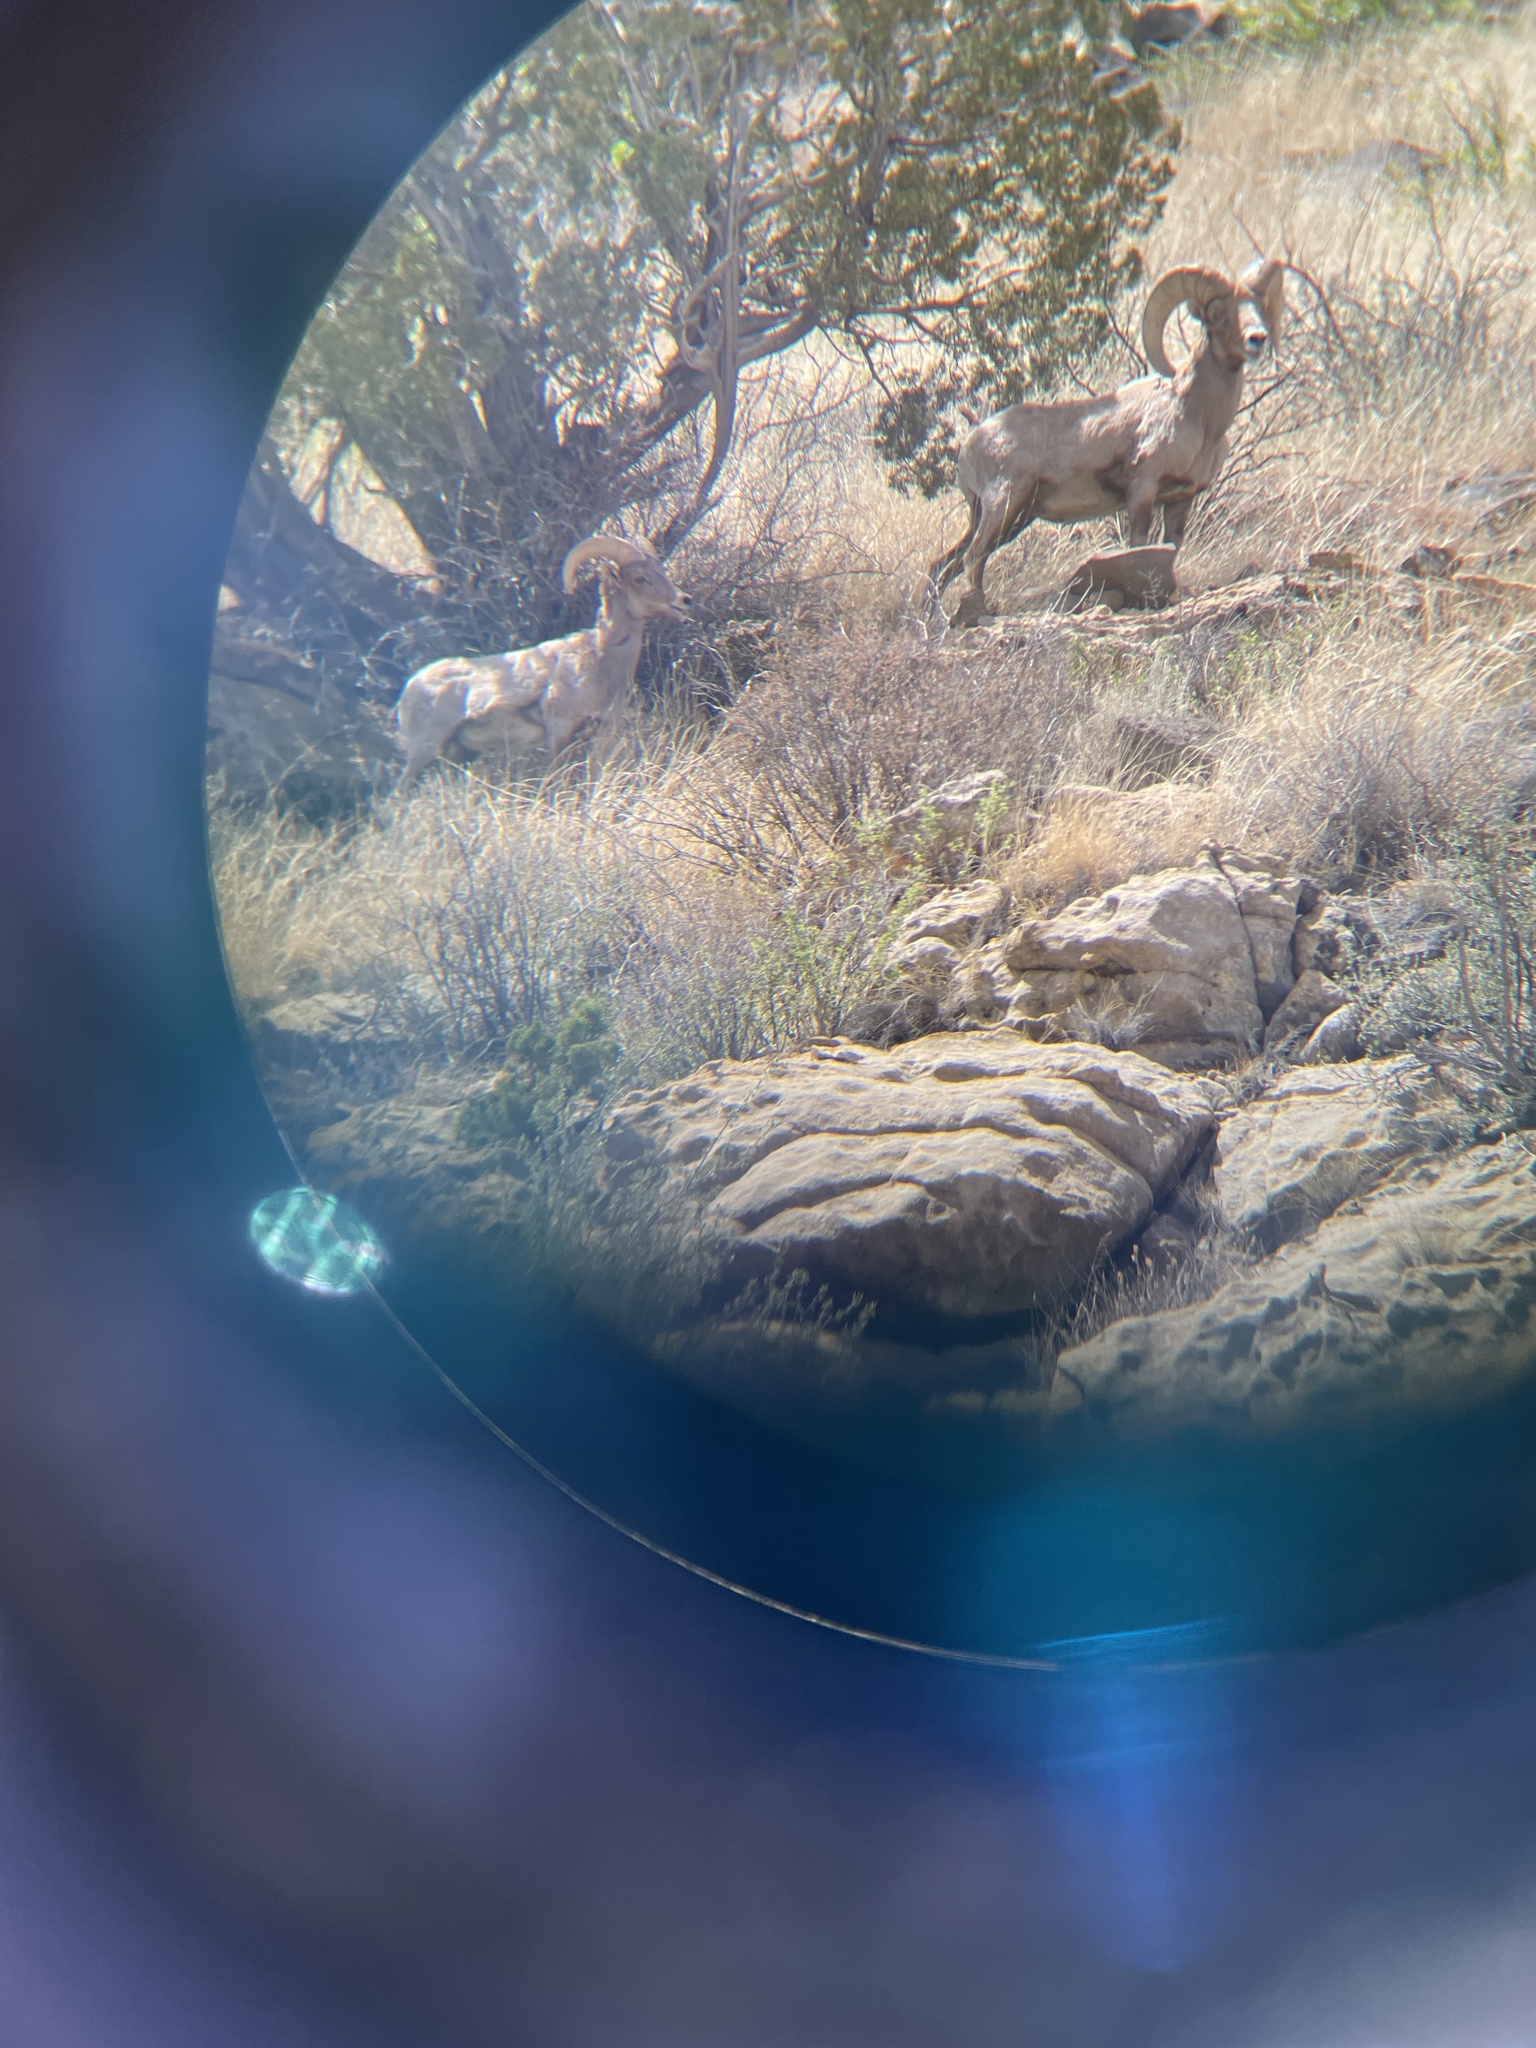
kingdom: Animalia
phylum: Chordata
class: Mammalia
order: Artiodactyla
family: Bovidae
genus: Ovis
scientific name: Ovis canadensis
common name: Bighorn sheep
